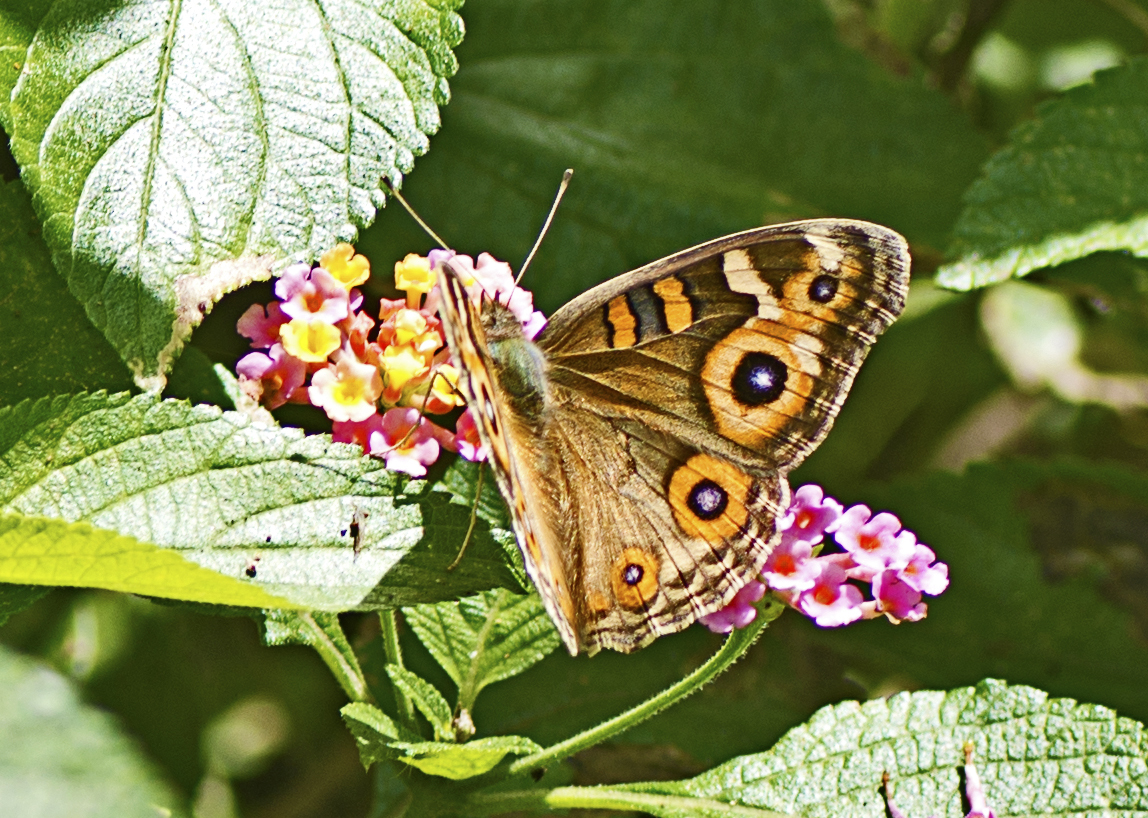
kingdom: Animalia
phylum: Arthropoda
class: Insecta
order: Lepidoptera
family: Nymphalidae
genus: Junonia
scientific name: Junonia villida
